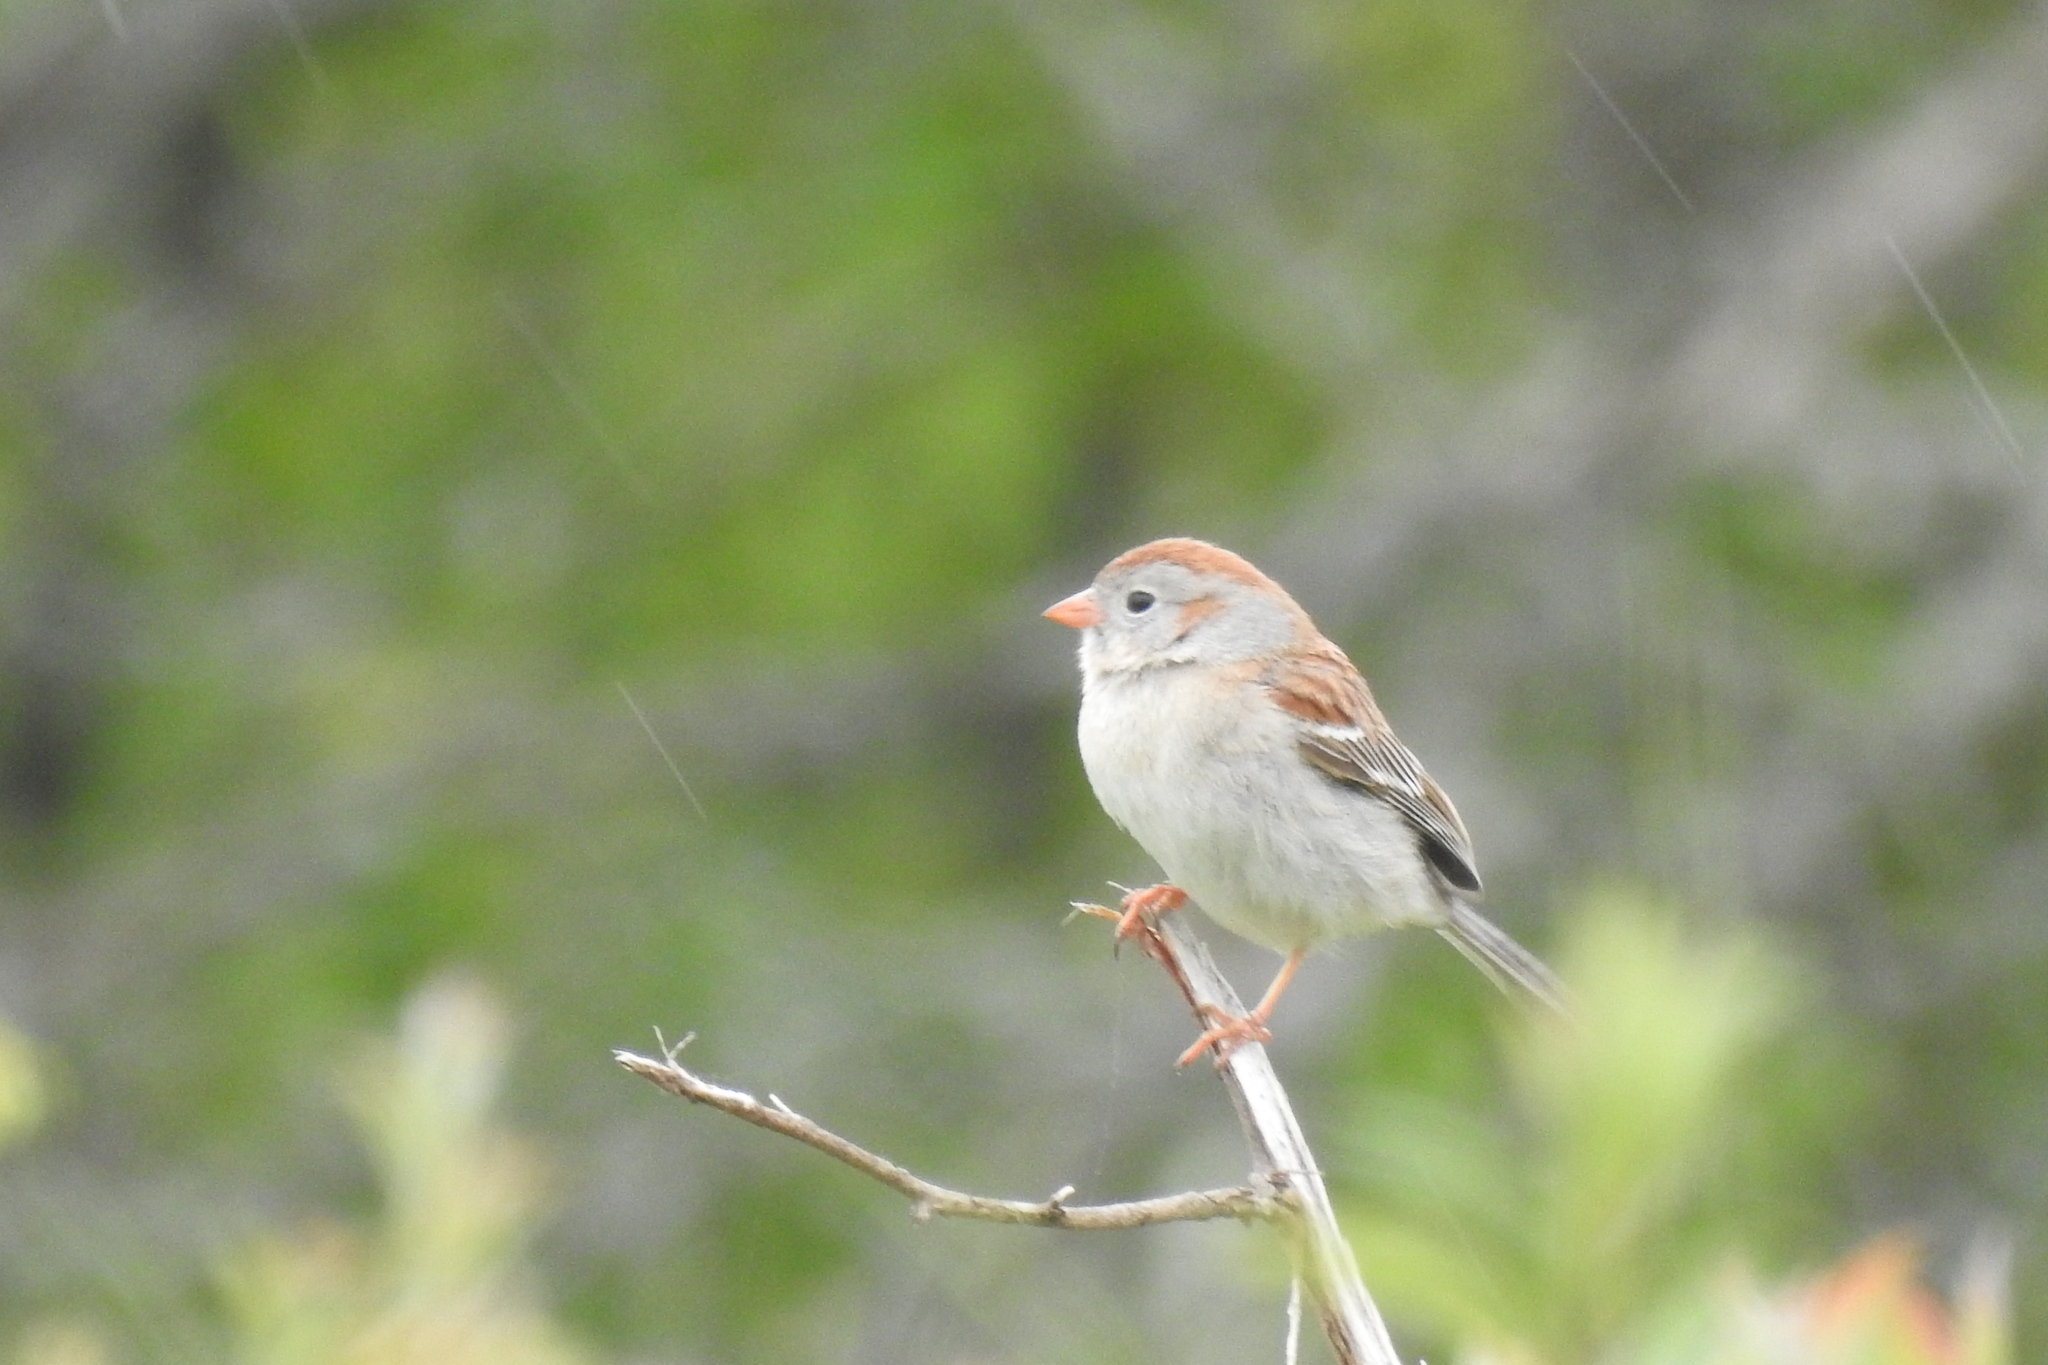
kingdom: Animalia
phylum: Chordata
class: Aves
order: Passeriformes
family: Passerellidae
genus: Spizella
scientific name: Spizella pusilla
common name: Field sparrow
